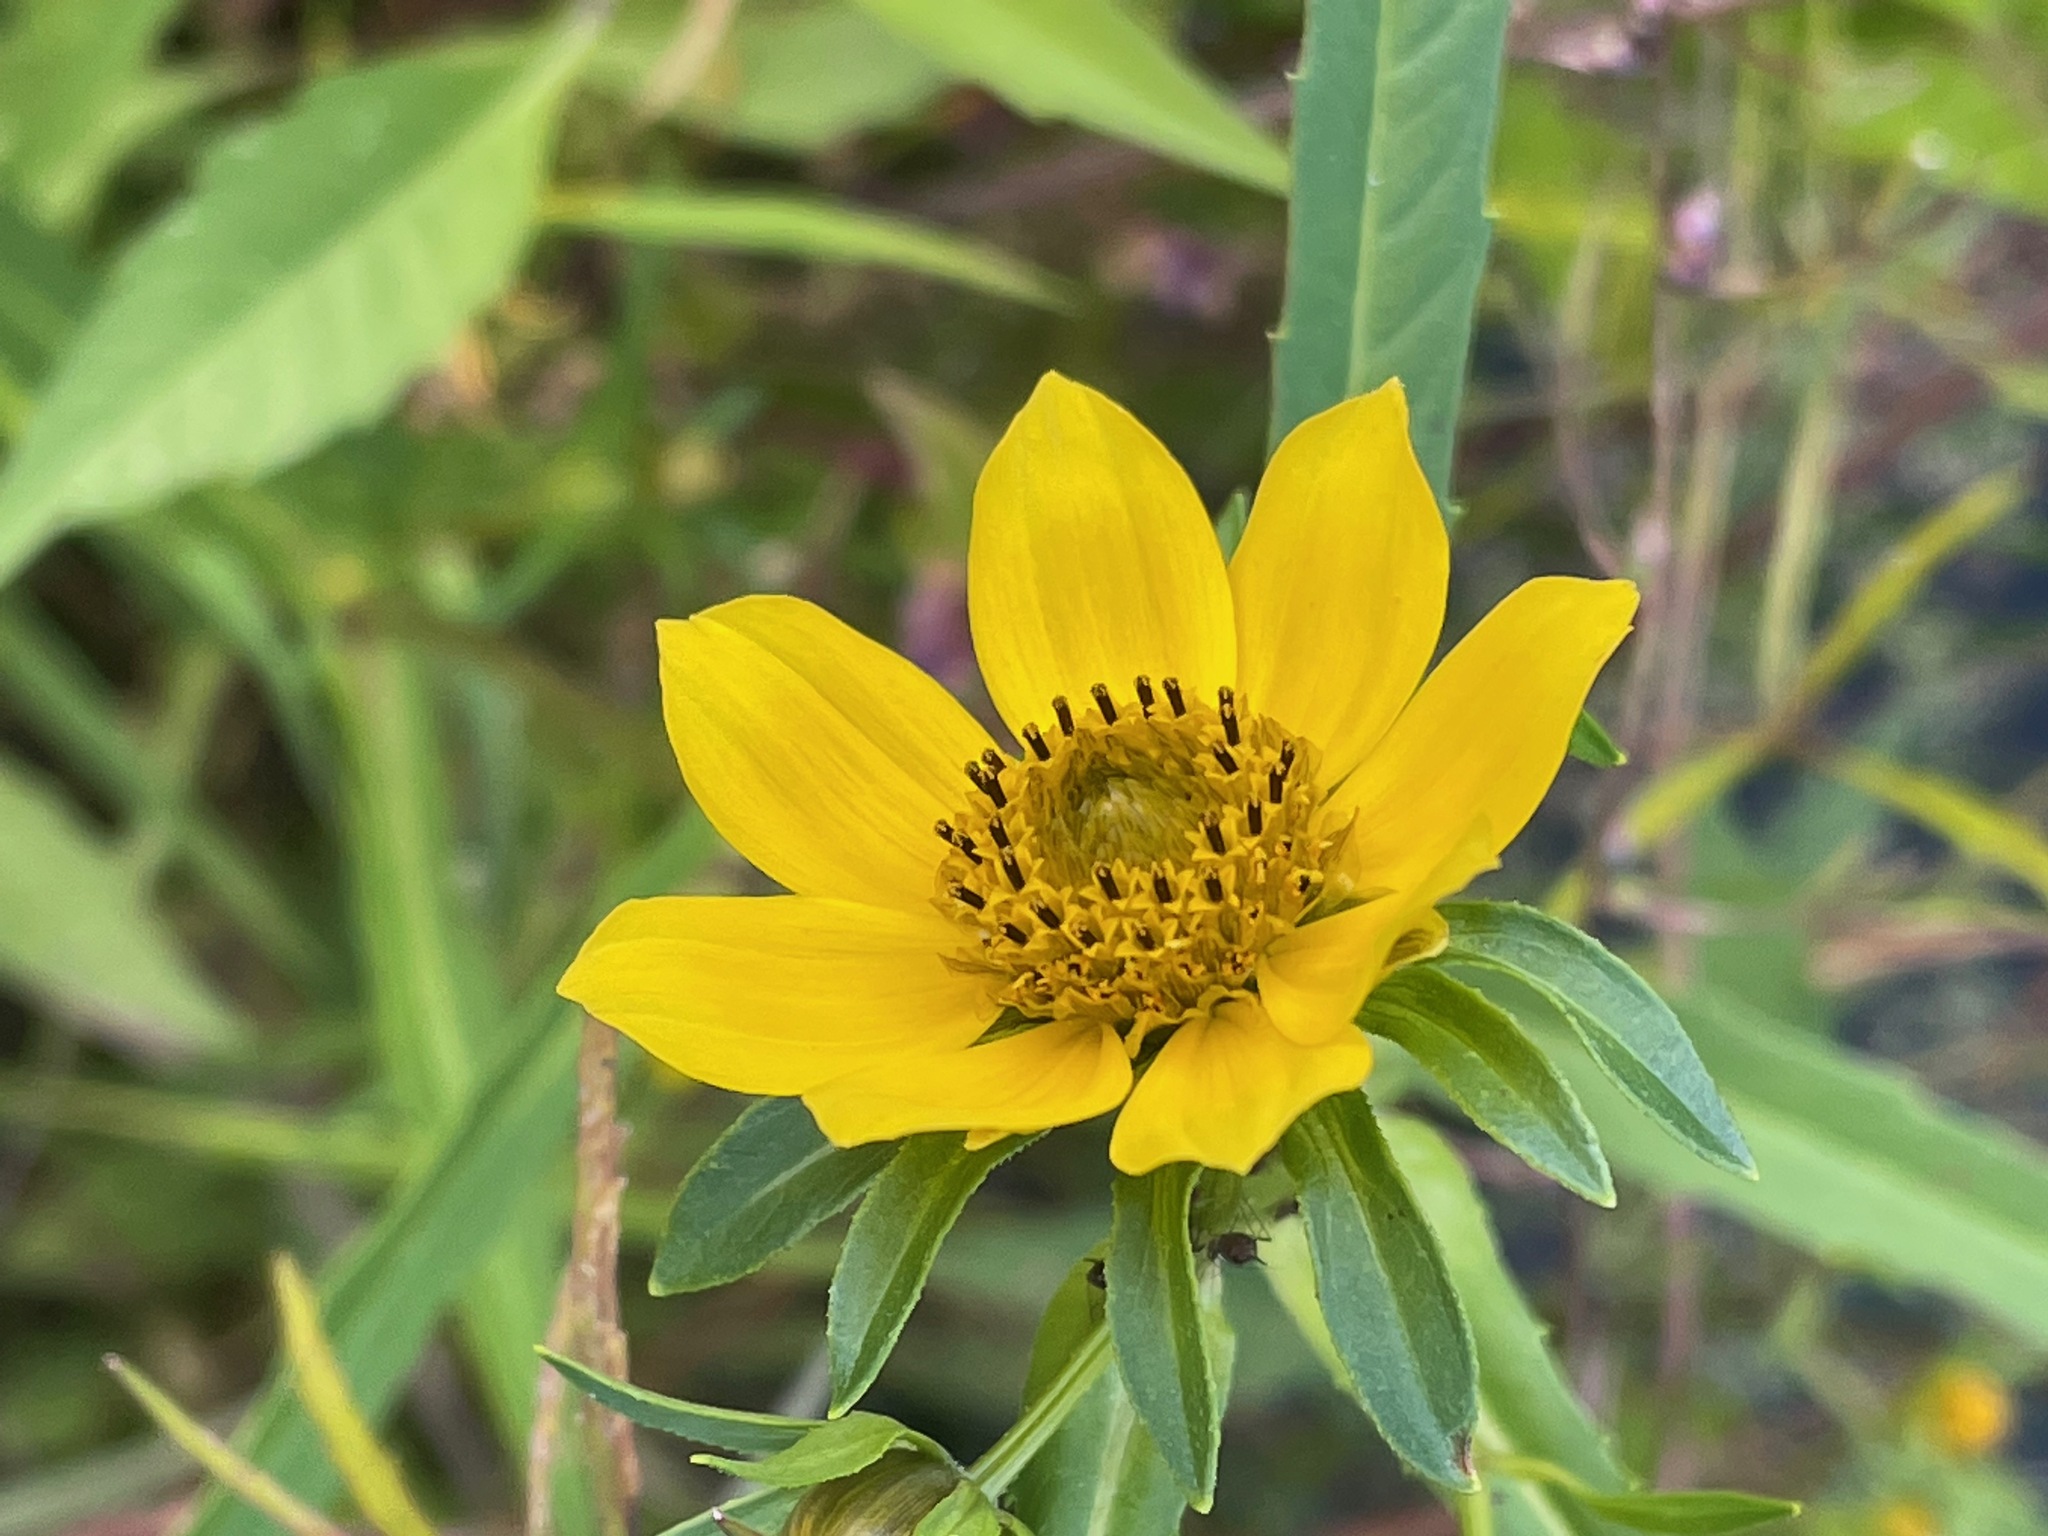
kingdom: Plantae
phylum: Tracheophyta
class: Magnoliopsida
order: Asterales
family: Asteraceae
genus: Bidens
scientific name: Bidens cernua
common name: Nodding bur-marigold
